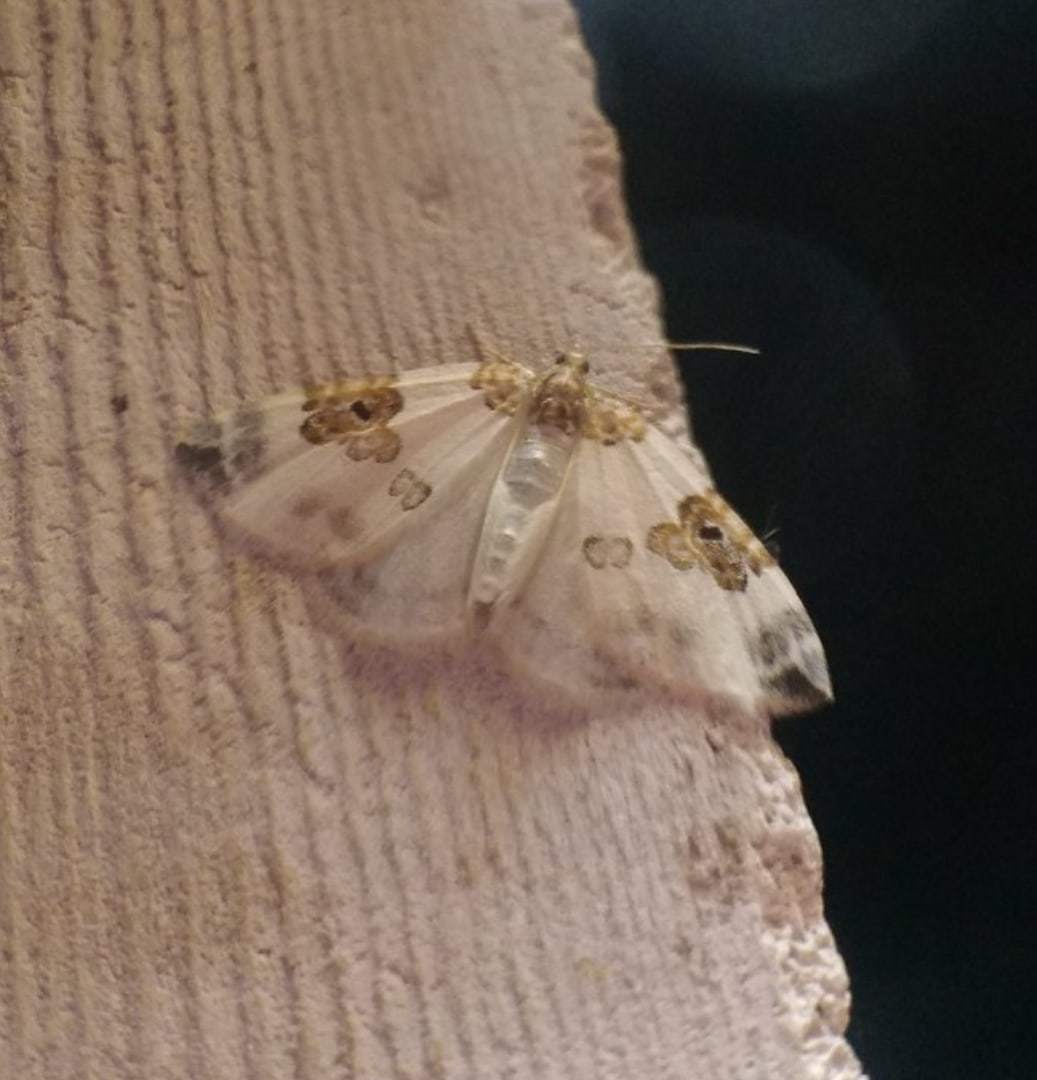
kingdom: Animalia
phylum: Arthropoda
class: Insecta
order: Lepidoptera
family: Geometridae
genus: Plemyria
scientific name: Plemyria rubiginata
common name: Blue-bordered carpet
